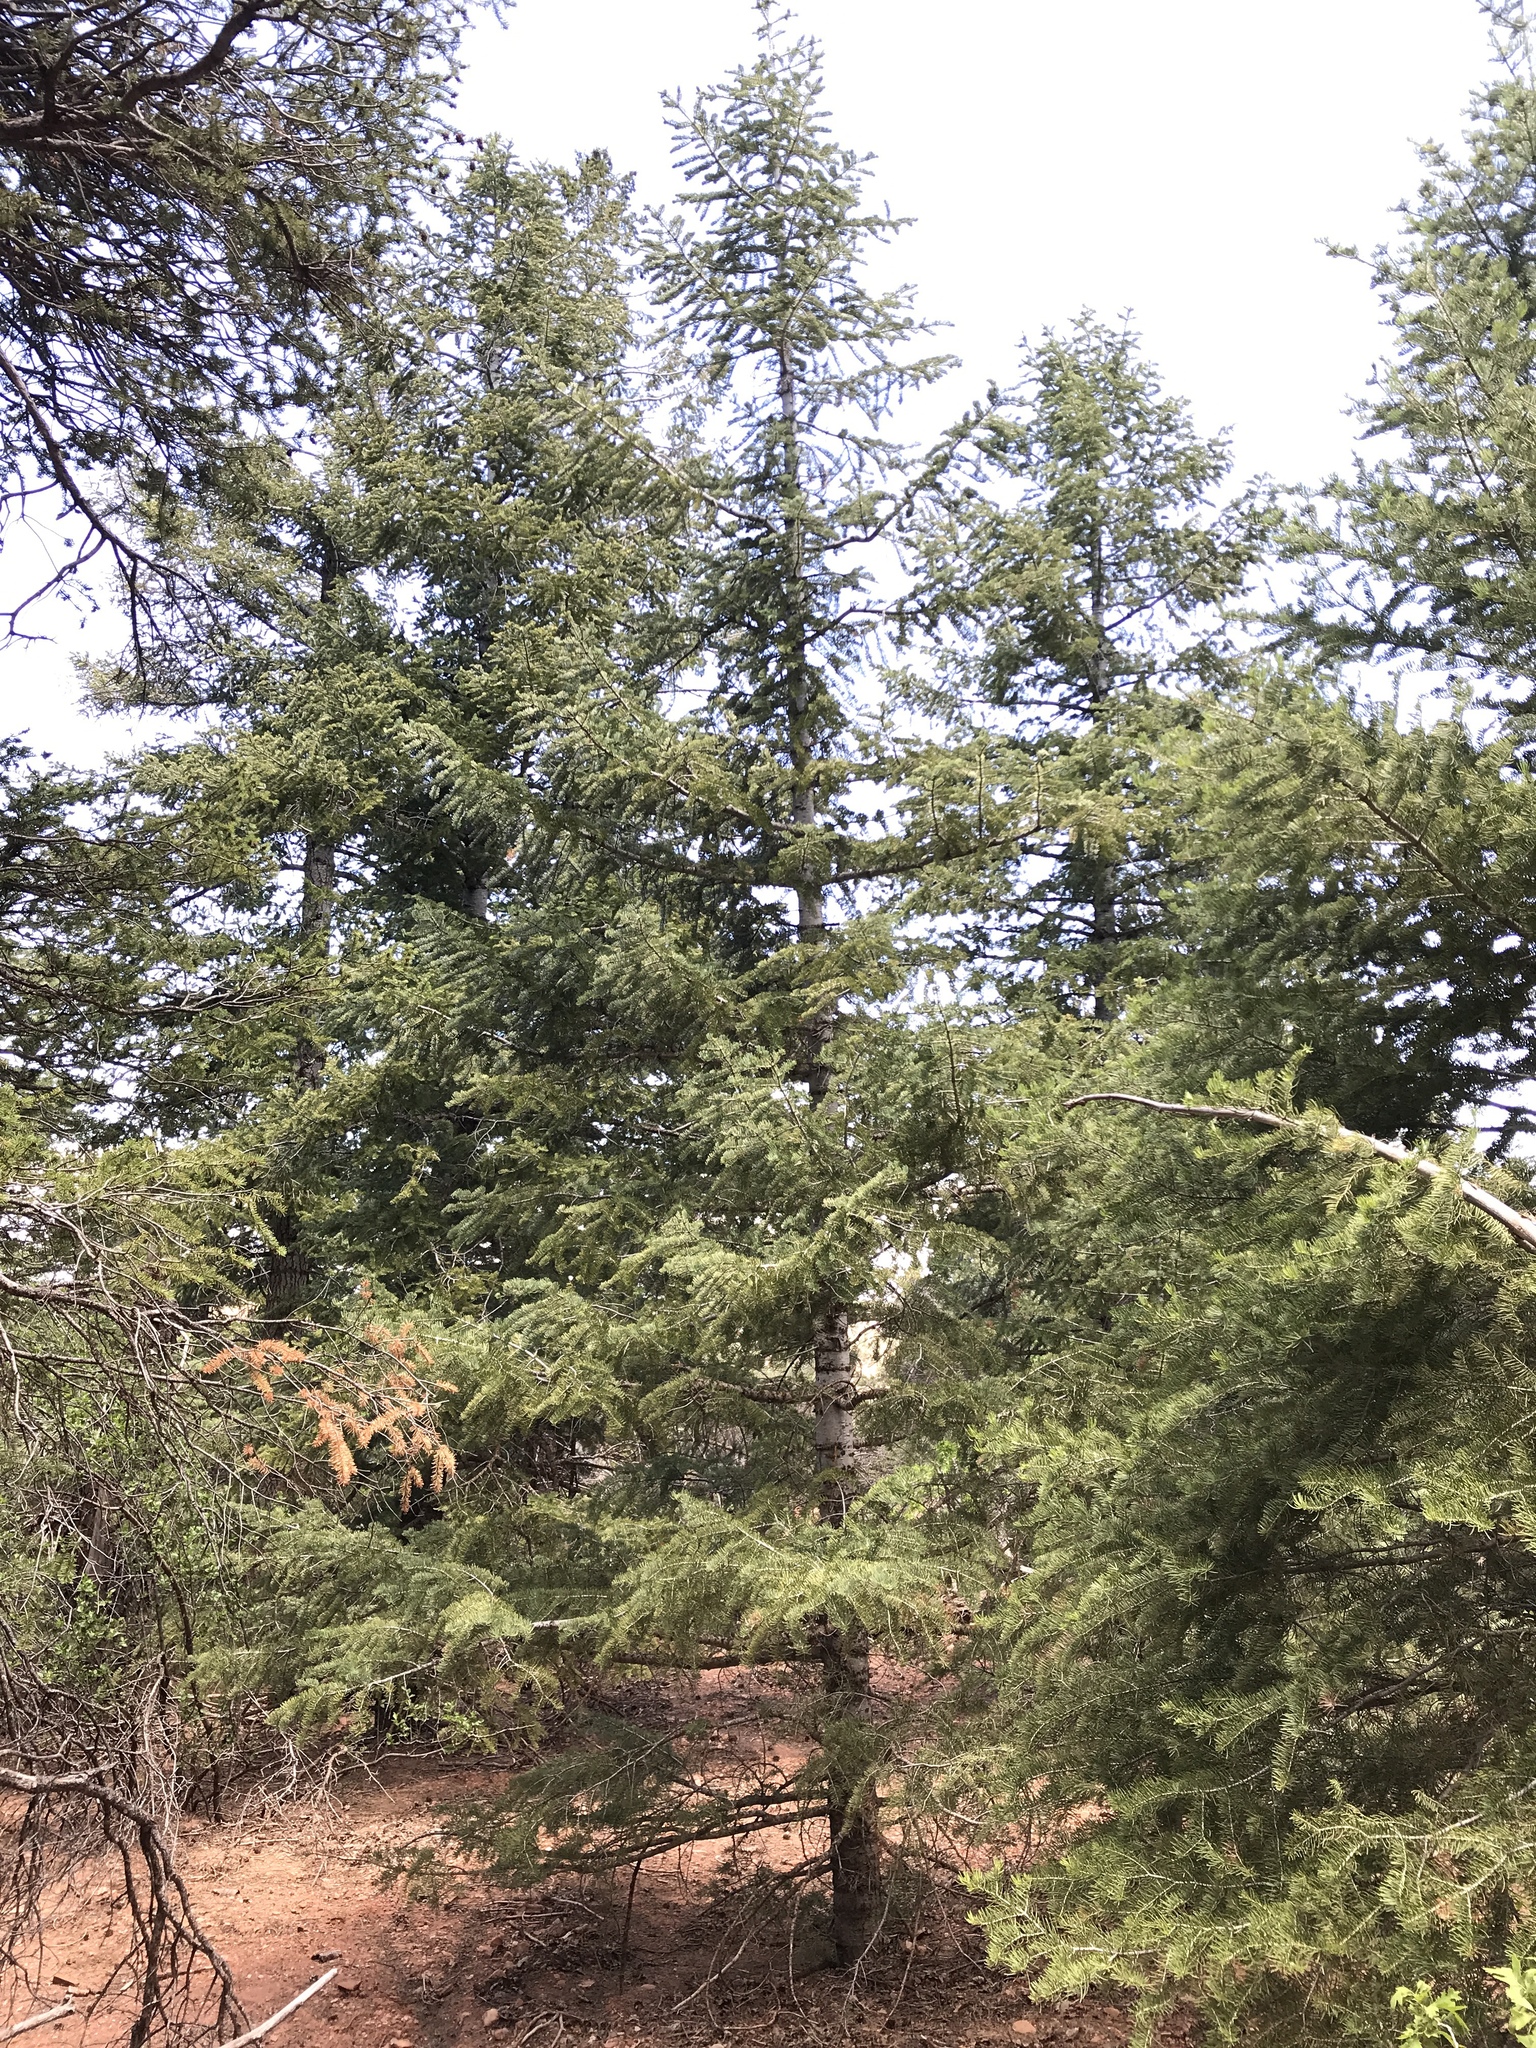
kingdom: Plantae
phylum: Tracheophyta
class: Pinopsida
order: Pinales
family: Pinaceae
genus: Abies
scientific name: Abies concolor
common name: Colorado fir
